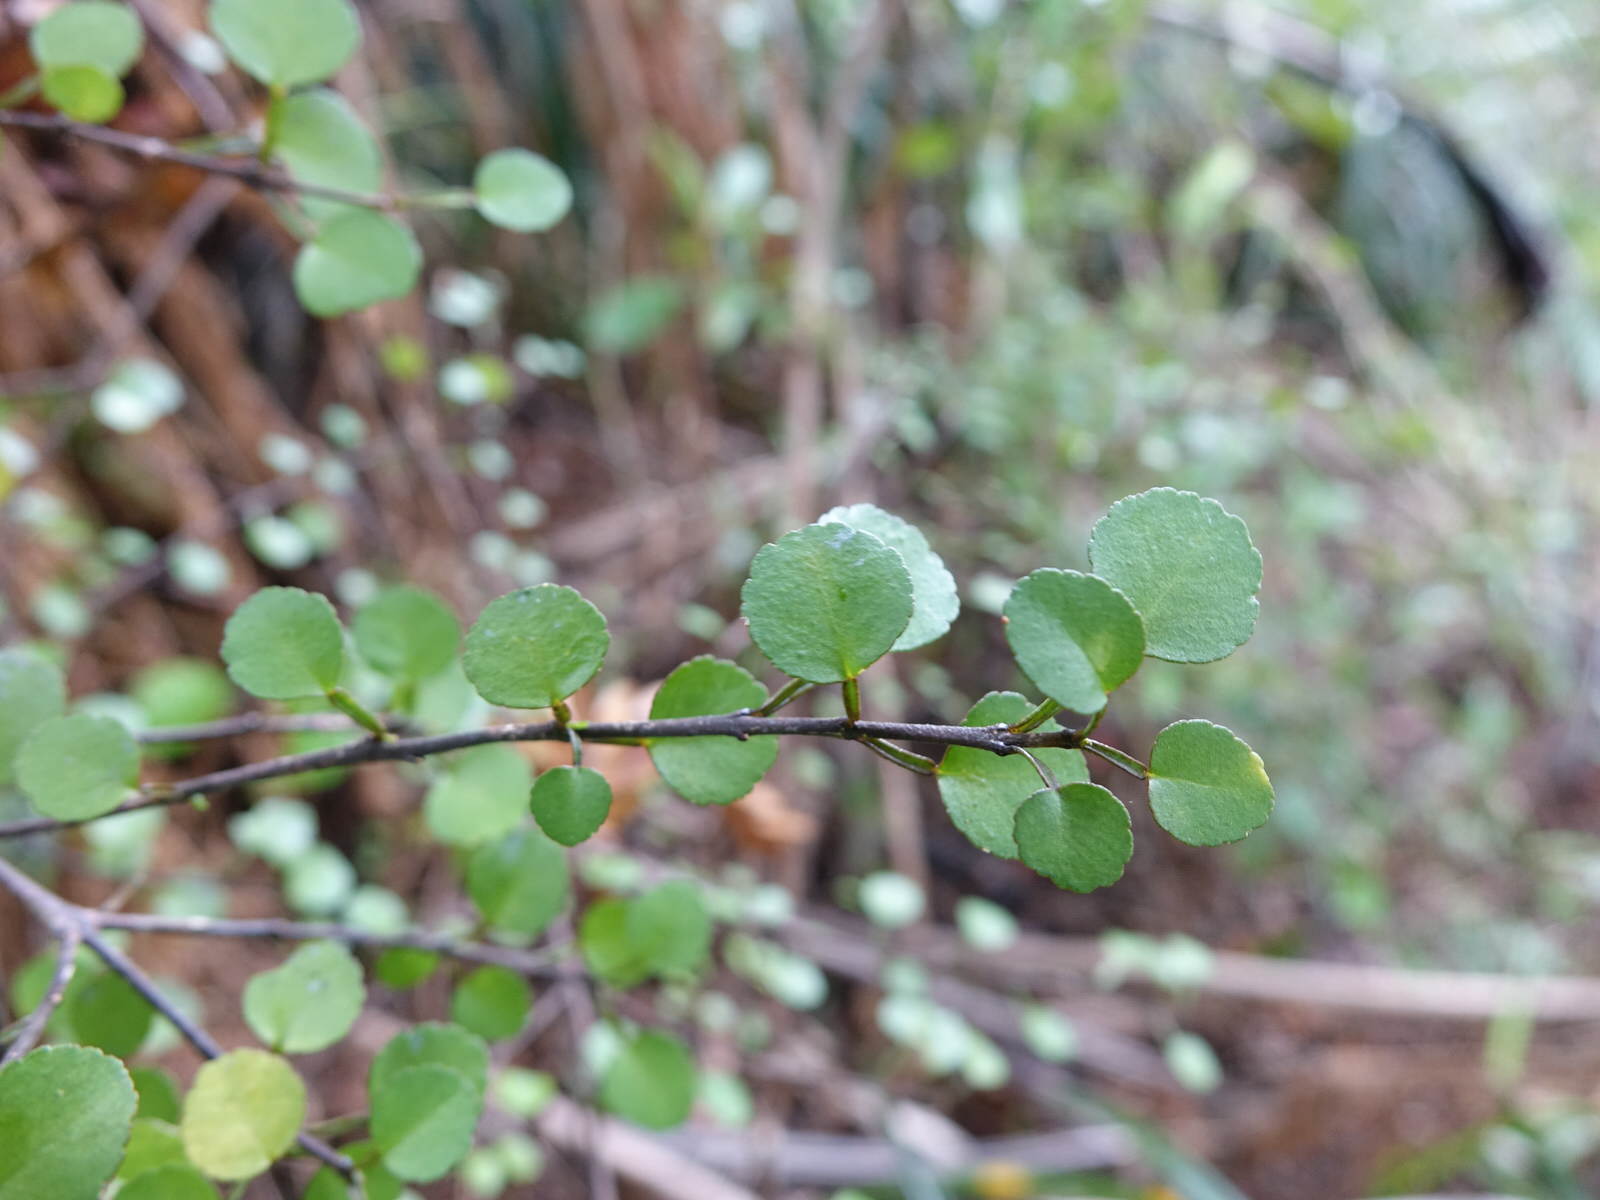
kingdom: Plantae
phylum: Tracheophyta
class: Magnoliopsida
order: Sapindales
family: Rutaceae
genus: Melicope
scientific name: Melicope simplex
